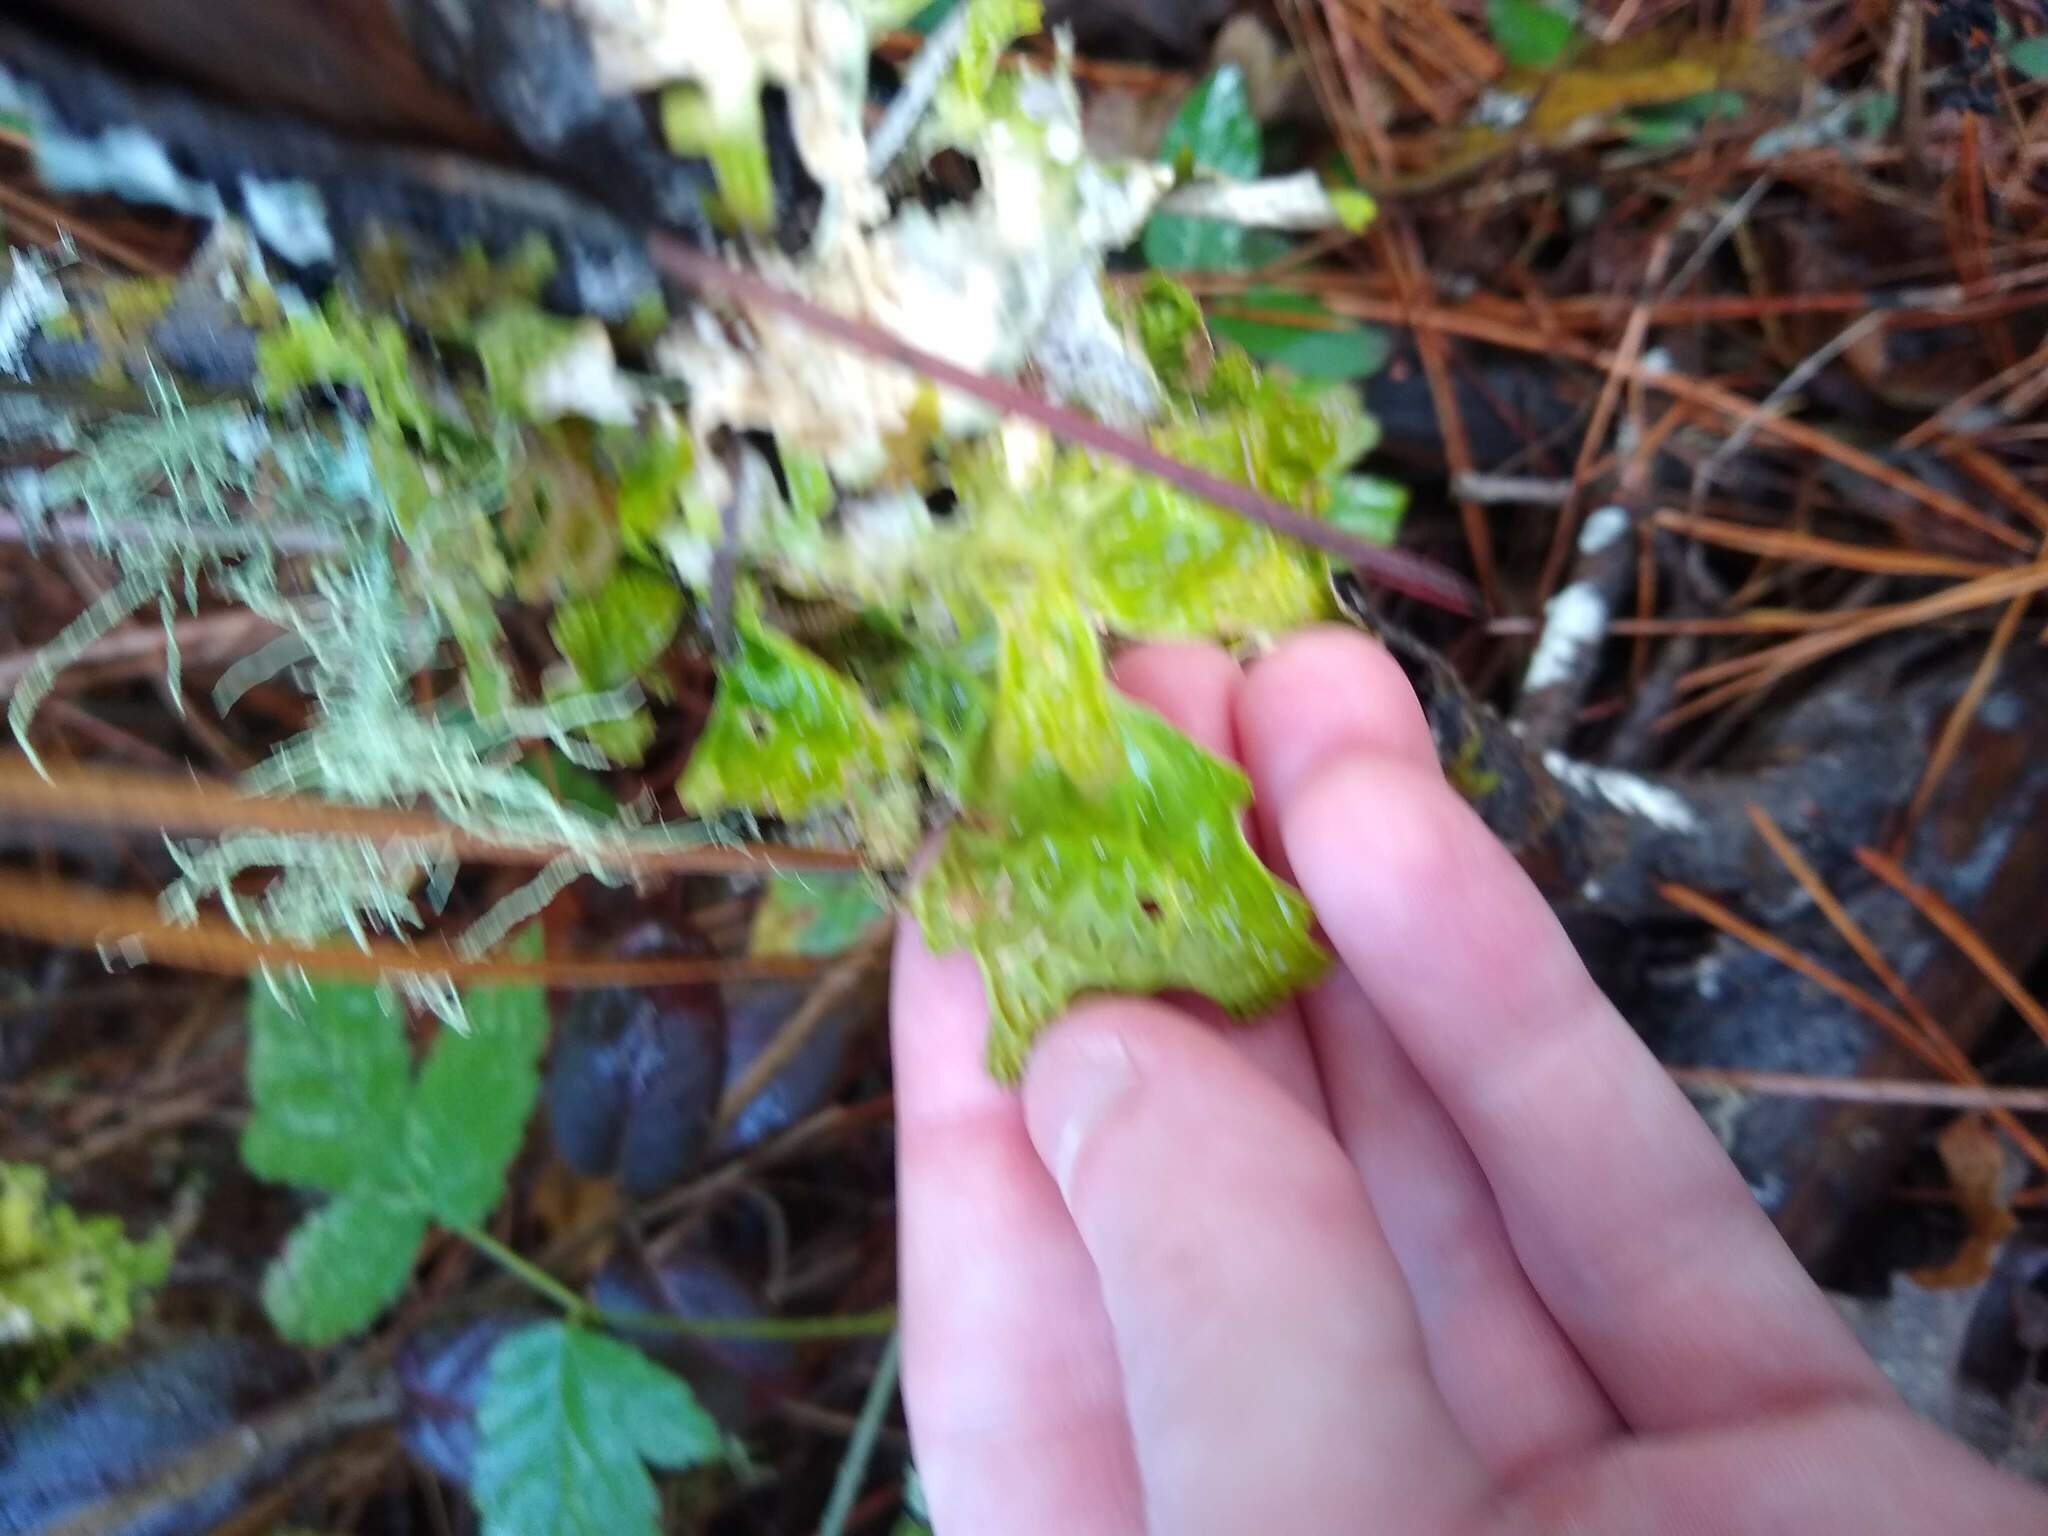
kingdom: Fungi
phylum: Ascomycota
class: Lecanoromycetes
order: Peltigerales
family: Lobariaceae
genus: Lobaria
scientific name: Lobaria pulmonaria
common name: Lungwort
